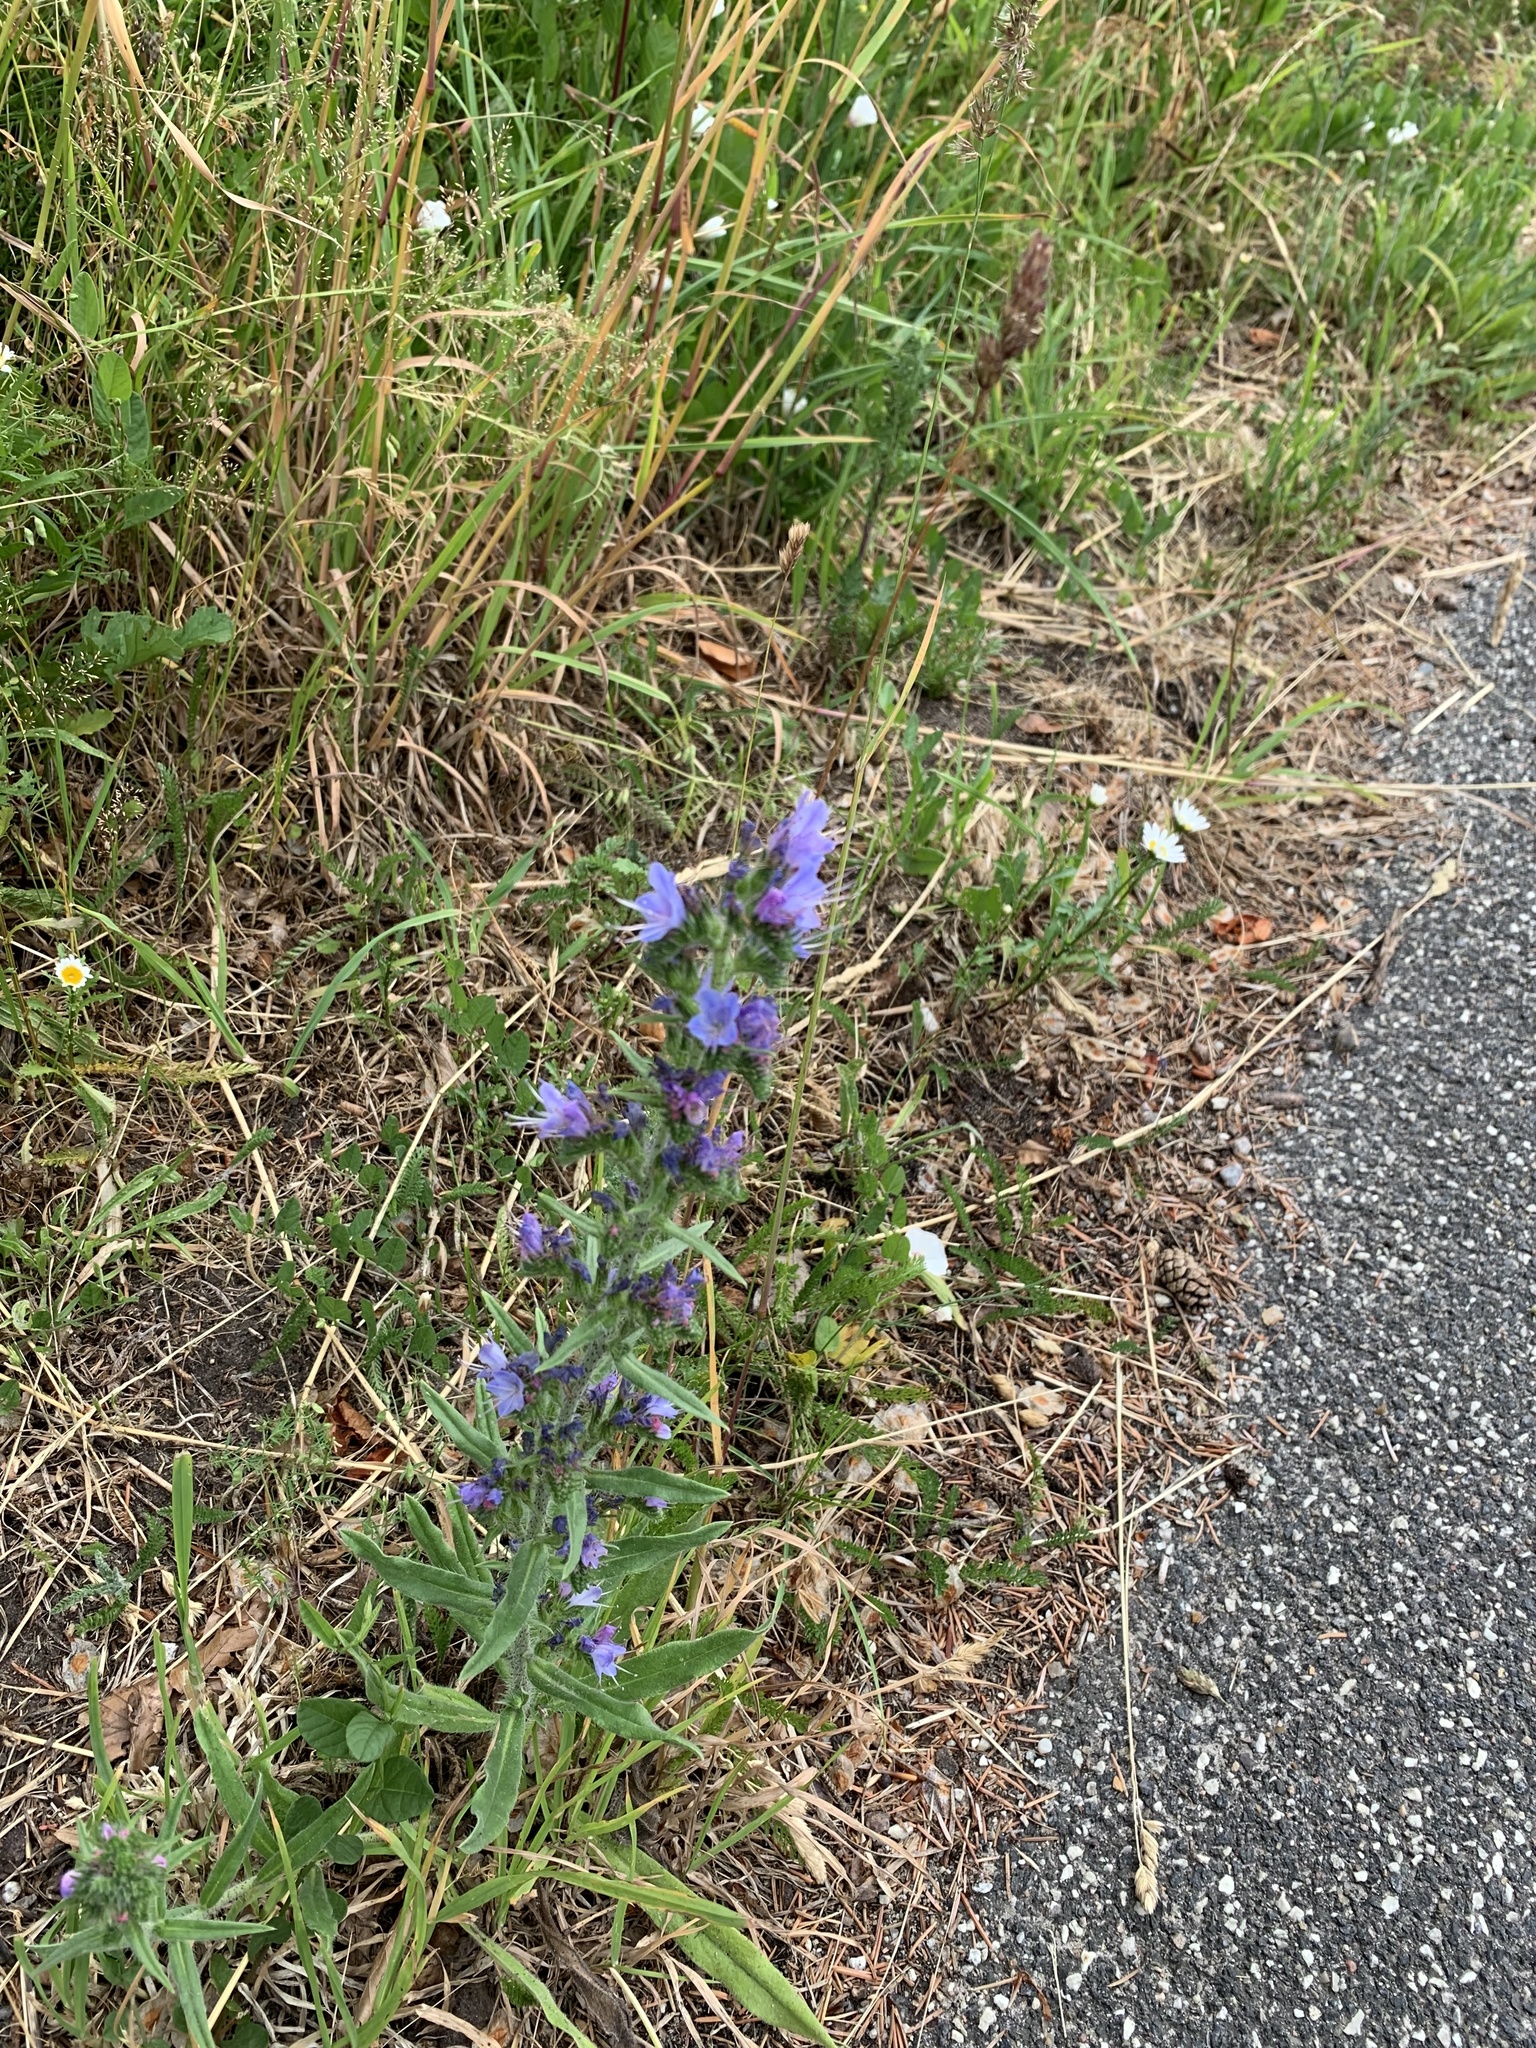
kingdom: Plantae
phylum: Tracheophyta
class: Magnoliopsida
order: Boraginales
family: Boraginaceae
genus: Echium
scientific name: Echium vulgare
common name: Common viper's bugloss
